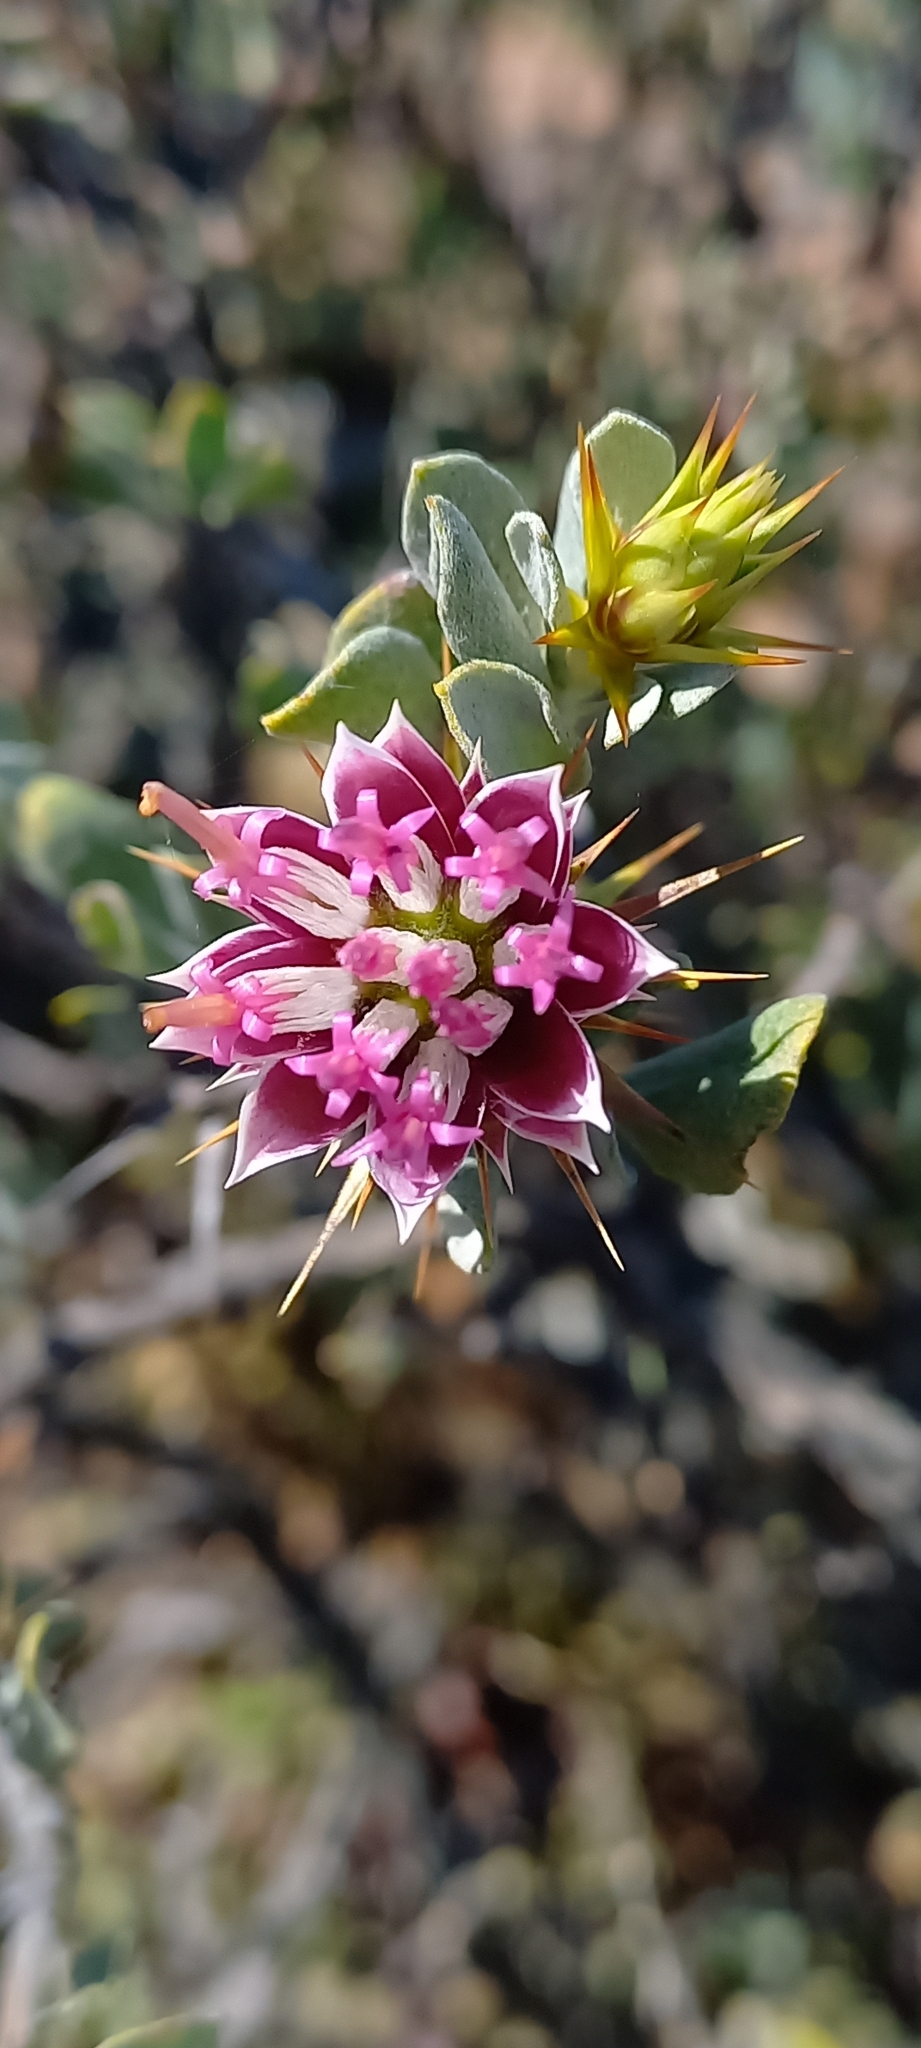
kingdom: Plantae
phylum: Tracheophyta
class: Magnoliopsida
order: Asterales
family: Asteraceae
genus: Macledium
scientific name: Macledium spinosum
